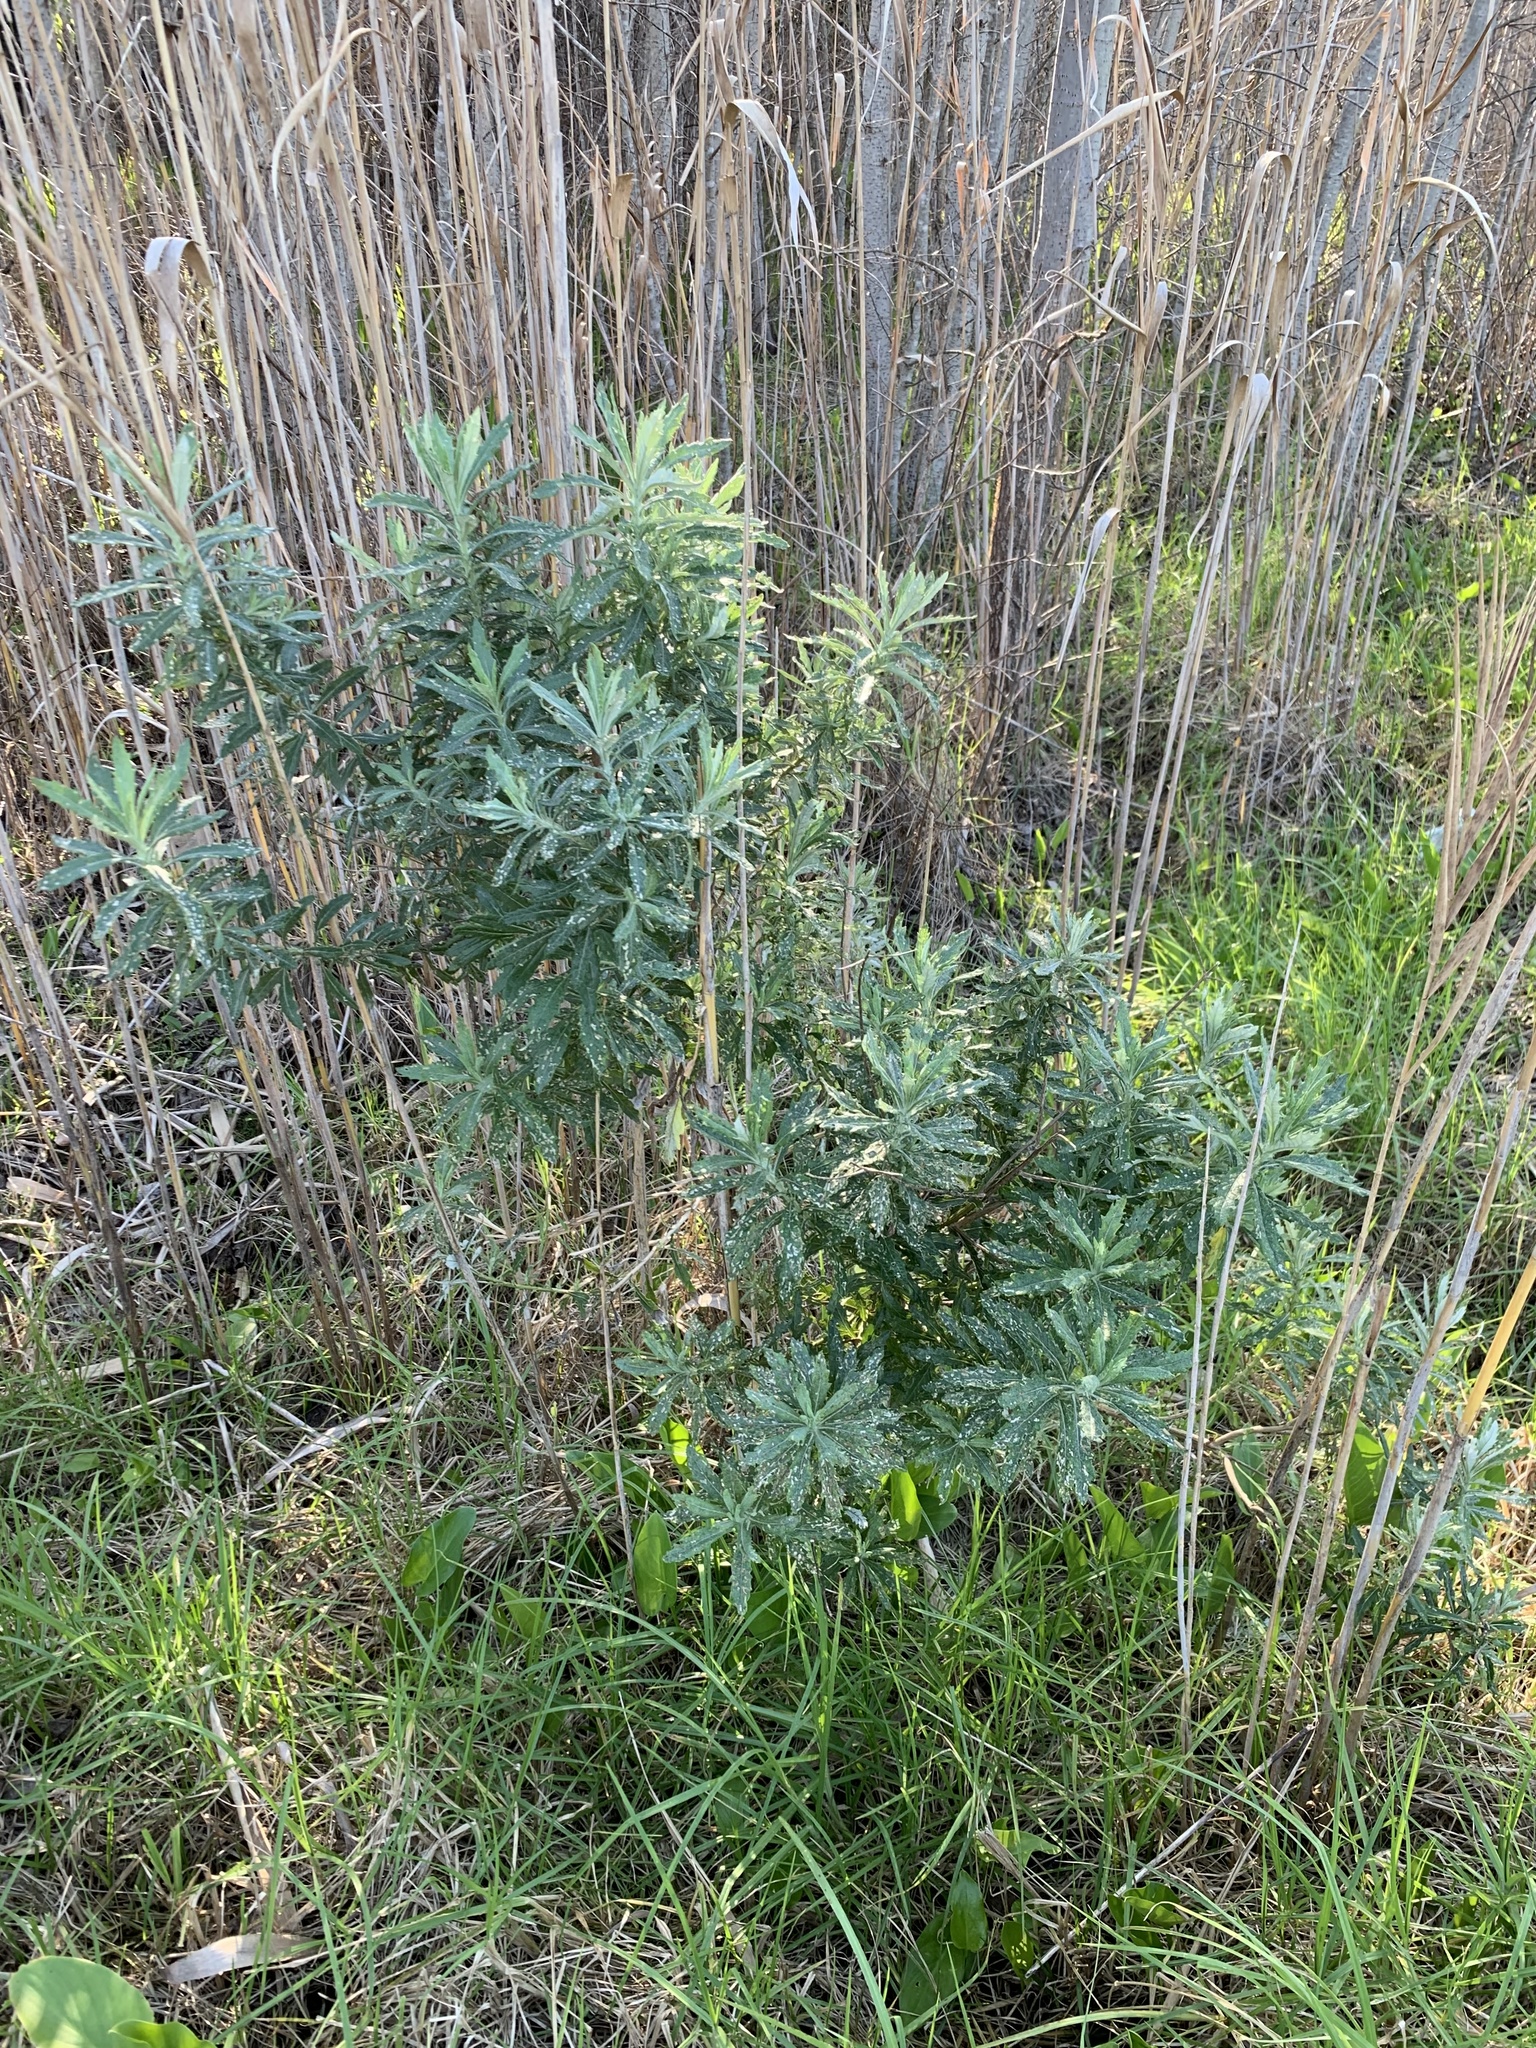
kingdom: Plantae
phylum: Tracheophyta
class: Magnoliopsida
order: Asterales
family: Asteraceae
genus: Senecio
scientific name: Senecio pterophorus
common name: Shoddy ragwort
